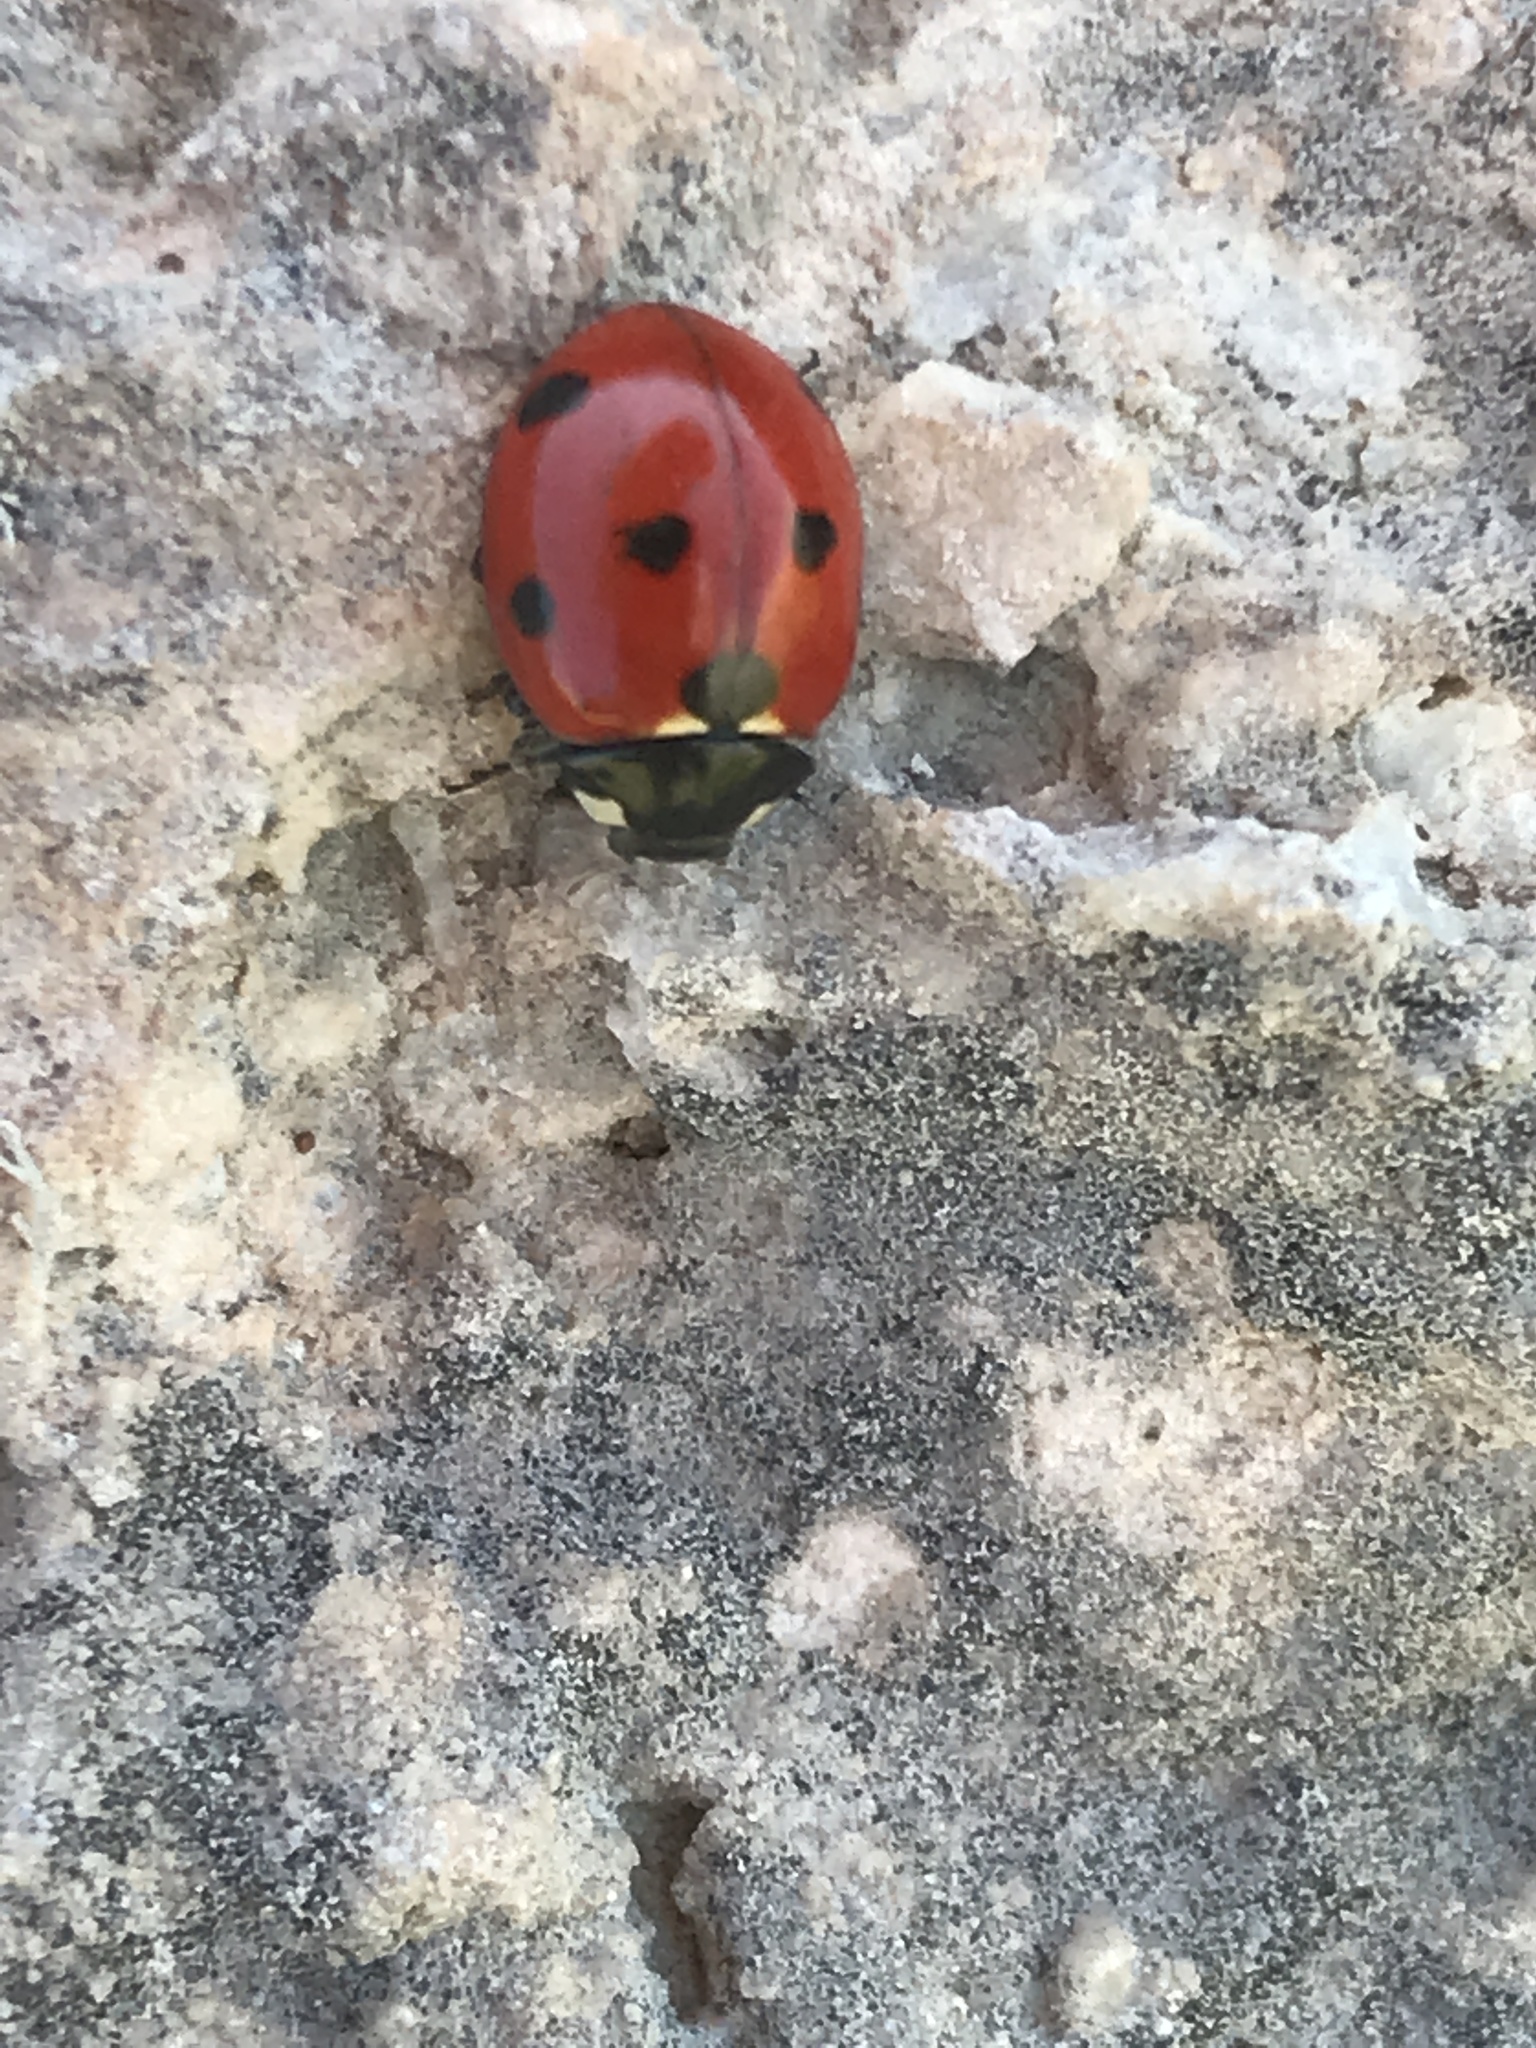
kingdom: Animalia
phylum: Arthropoda
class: Insecta
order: Coleoptera
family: Coccinellidae
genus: Coccinella
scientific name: Coccinella septempunctata
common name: Sevenspotted lady beetle
